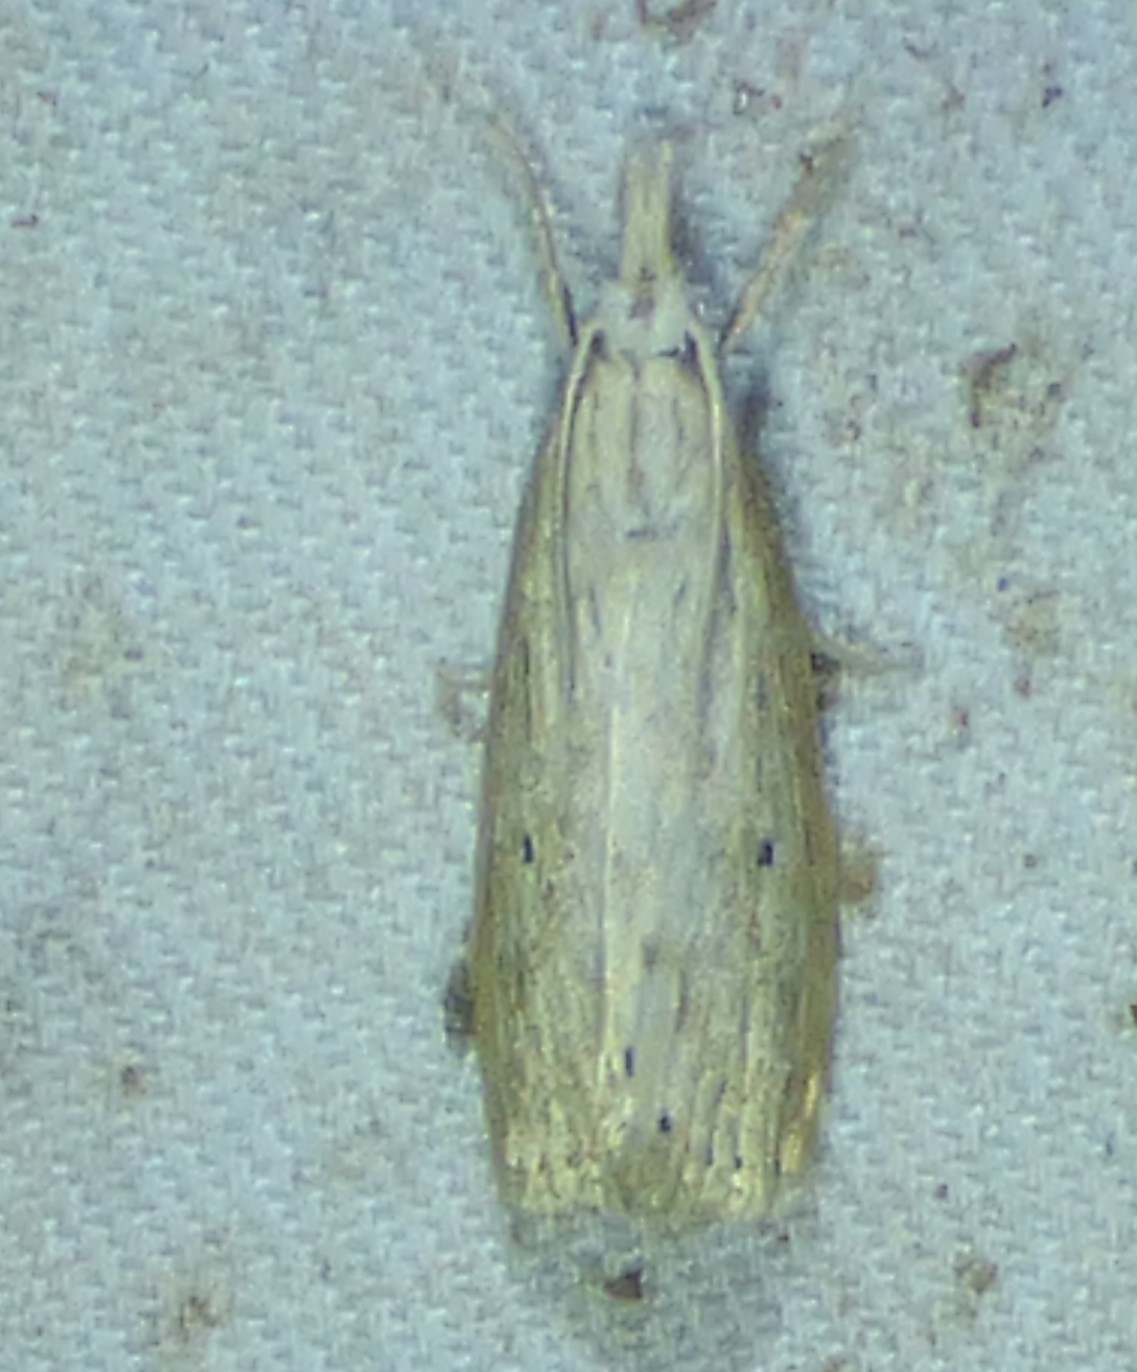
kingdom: Animalia
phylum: Arthropoda
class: Insecta
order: Lepidoptera
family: Crambidae
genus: Diatraea
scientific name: Diatraea lisetta
